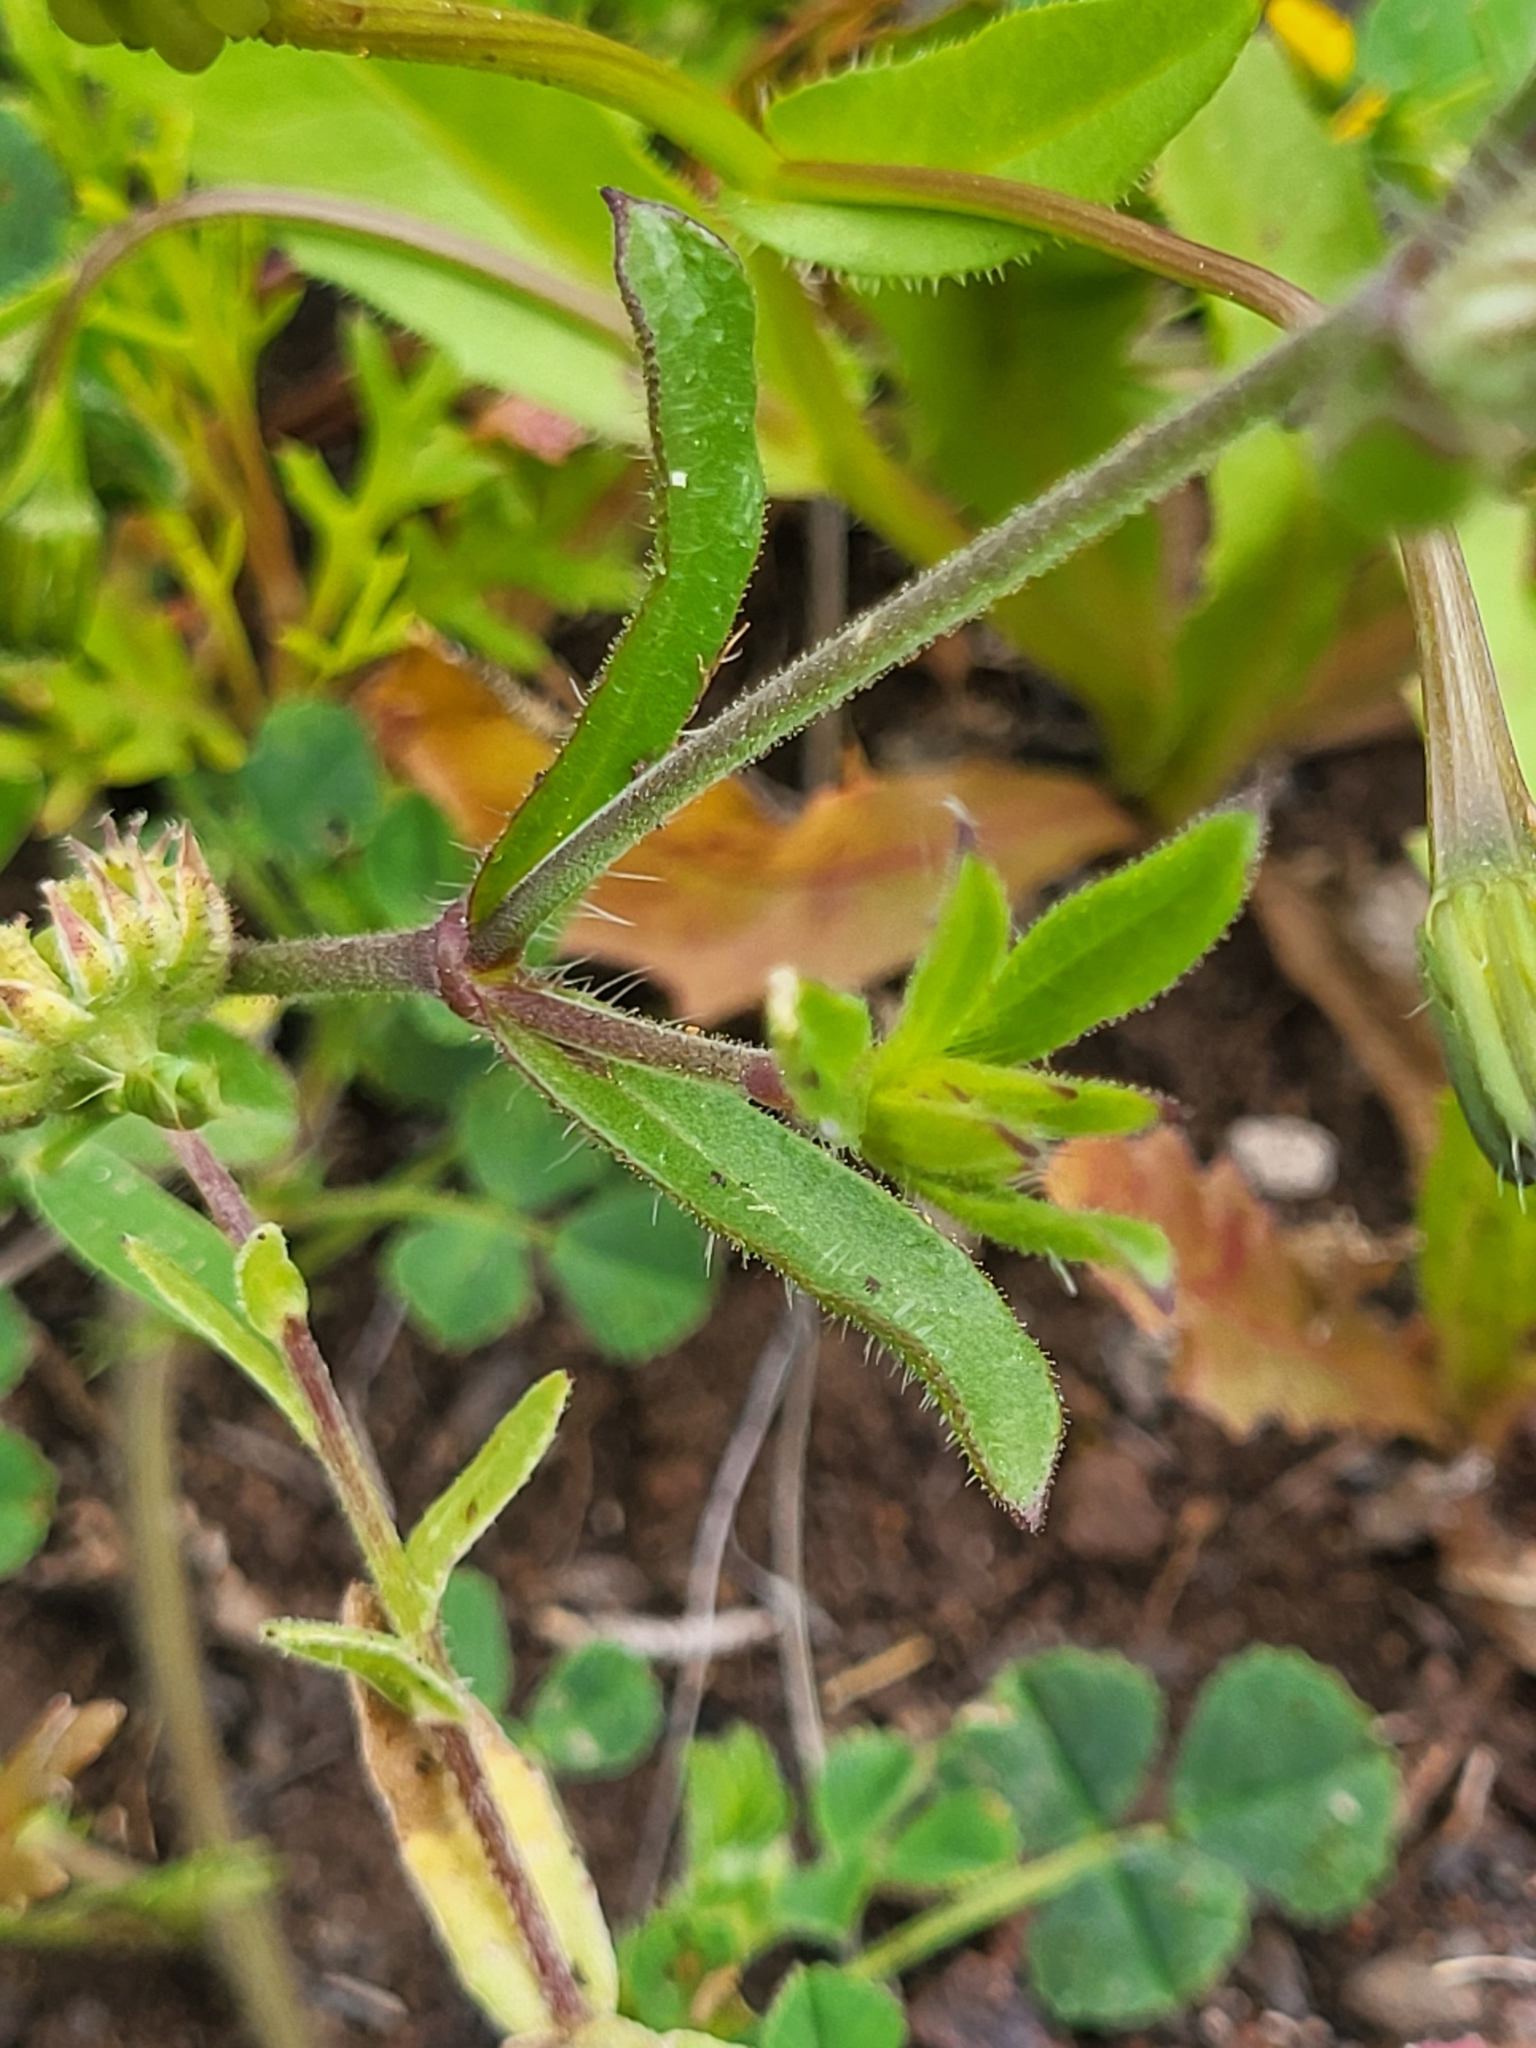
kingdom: Plantae
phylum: Tracheophyta
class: Magnoliopsida
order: Caryophyllales
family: Caryophyllaceae
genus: Silene
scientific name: Silene gallica
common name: Small-flowered catchfly
